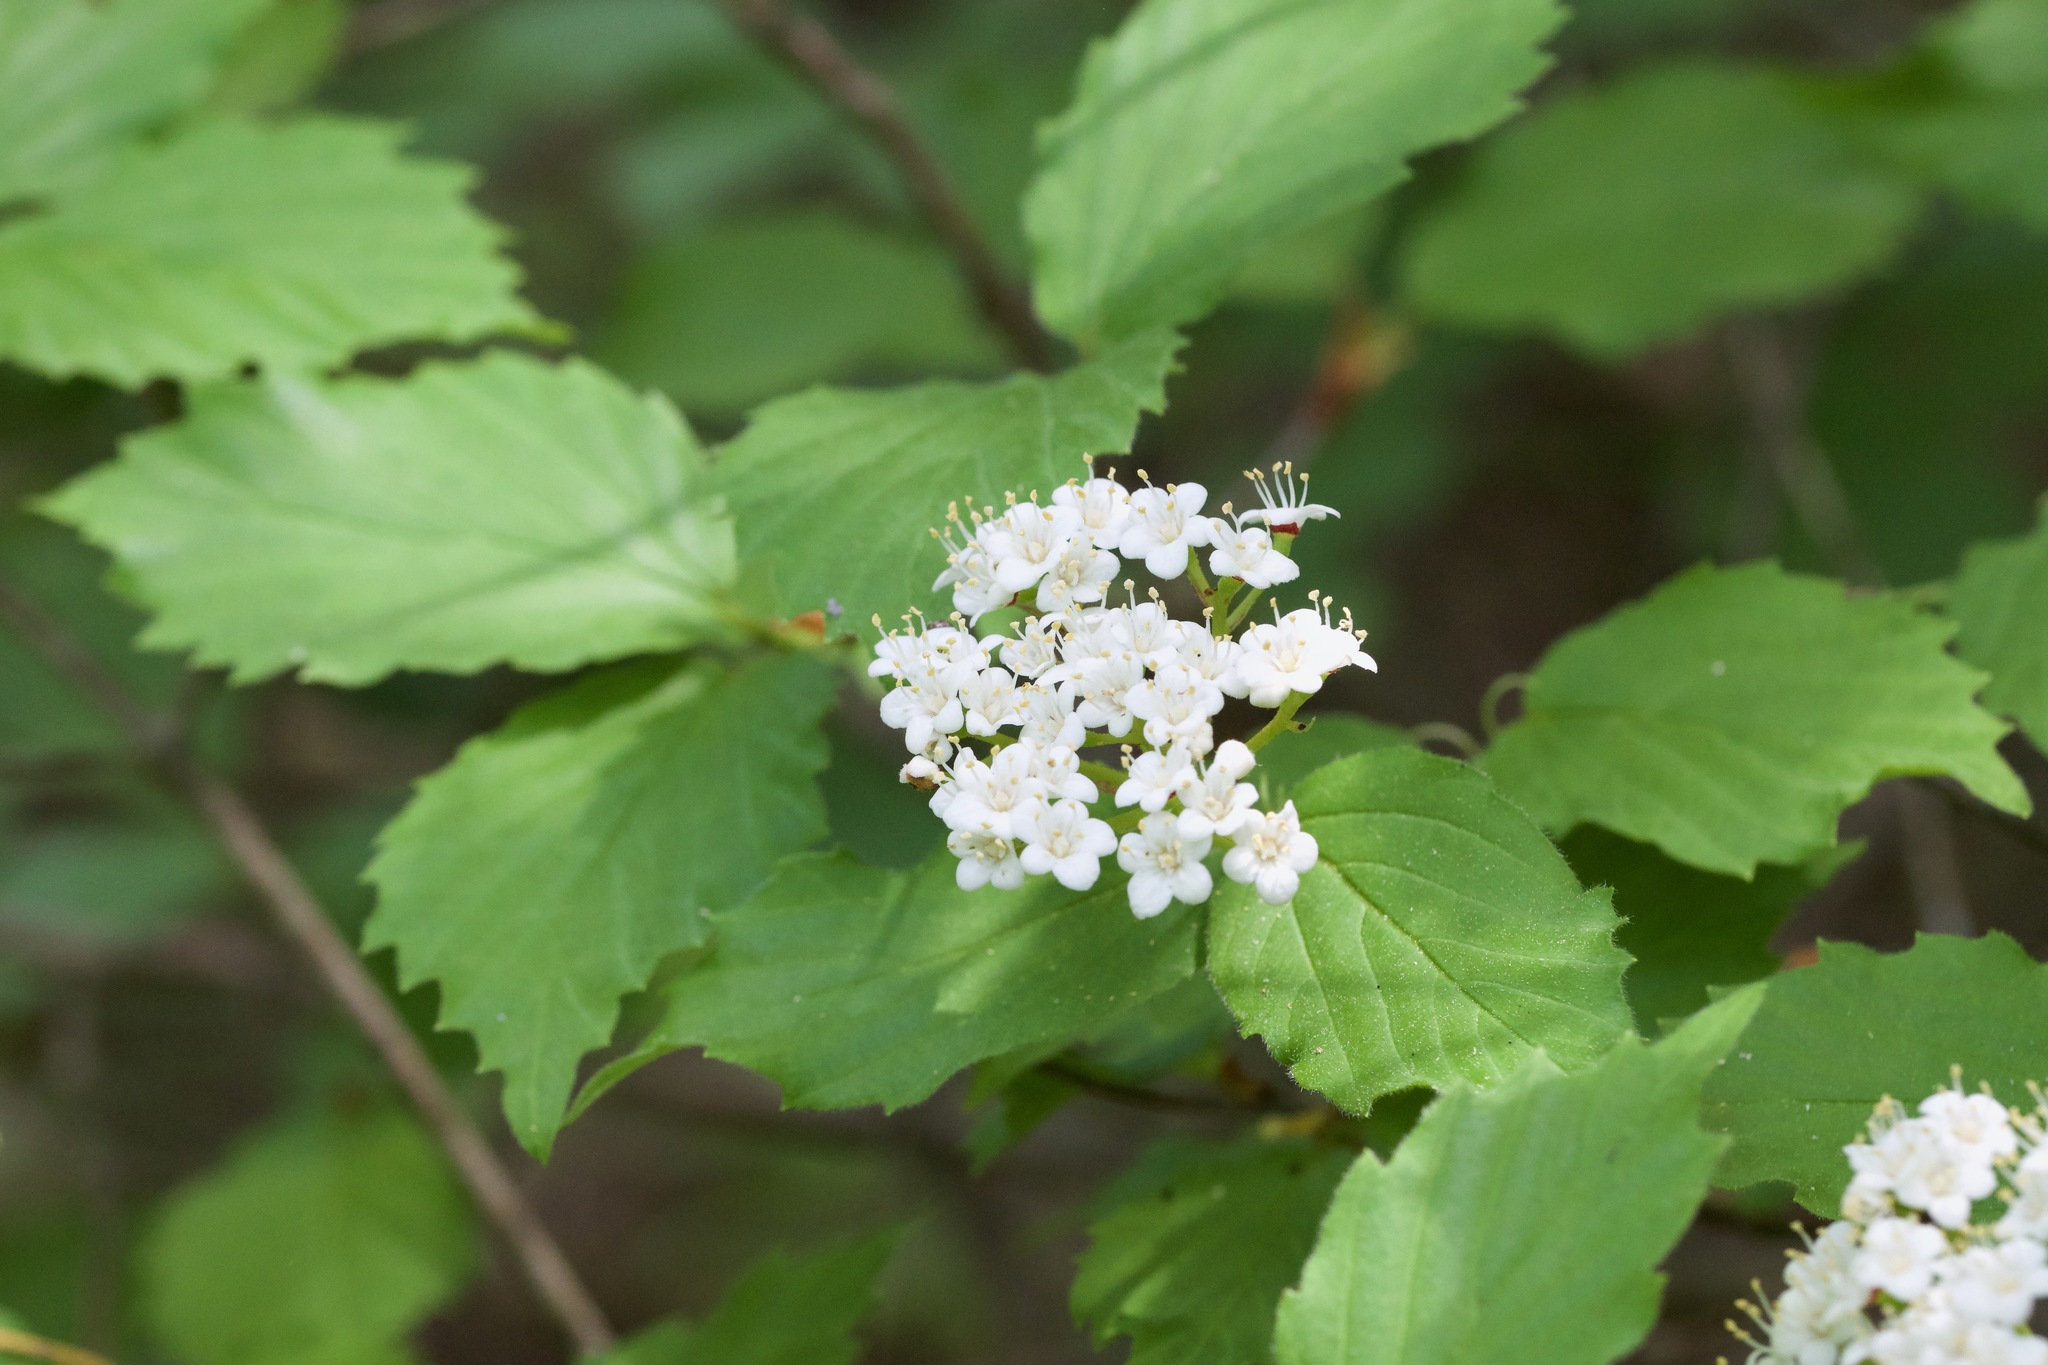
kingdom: Plantae
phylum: Tracheophyta
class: Magnoliopsida
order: Dipsacales
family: Viburnaceae
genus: Viburnum
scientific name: Viburnum rafinesqueanum
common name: Downy arrow-wood
